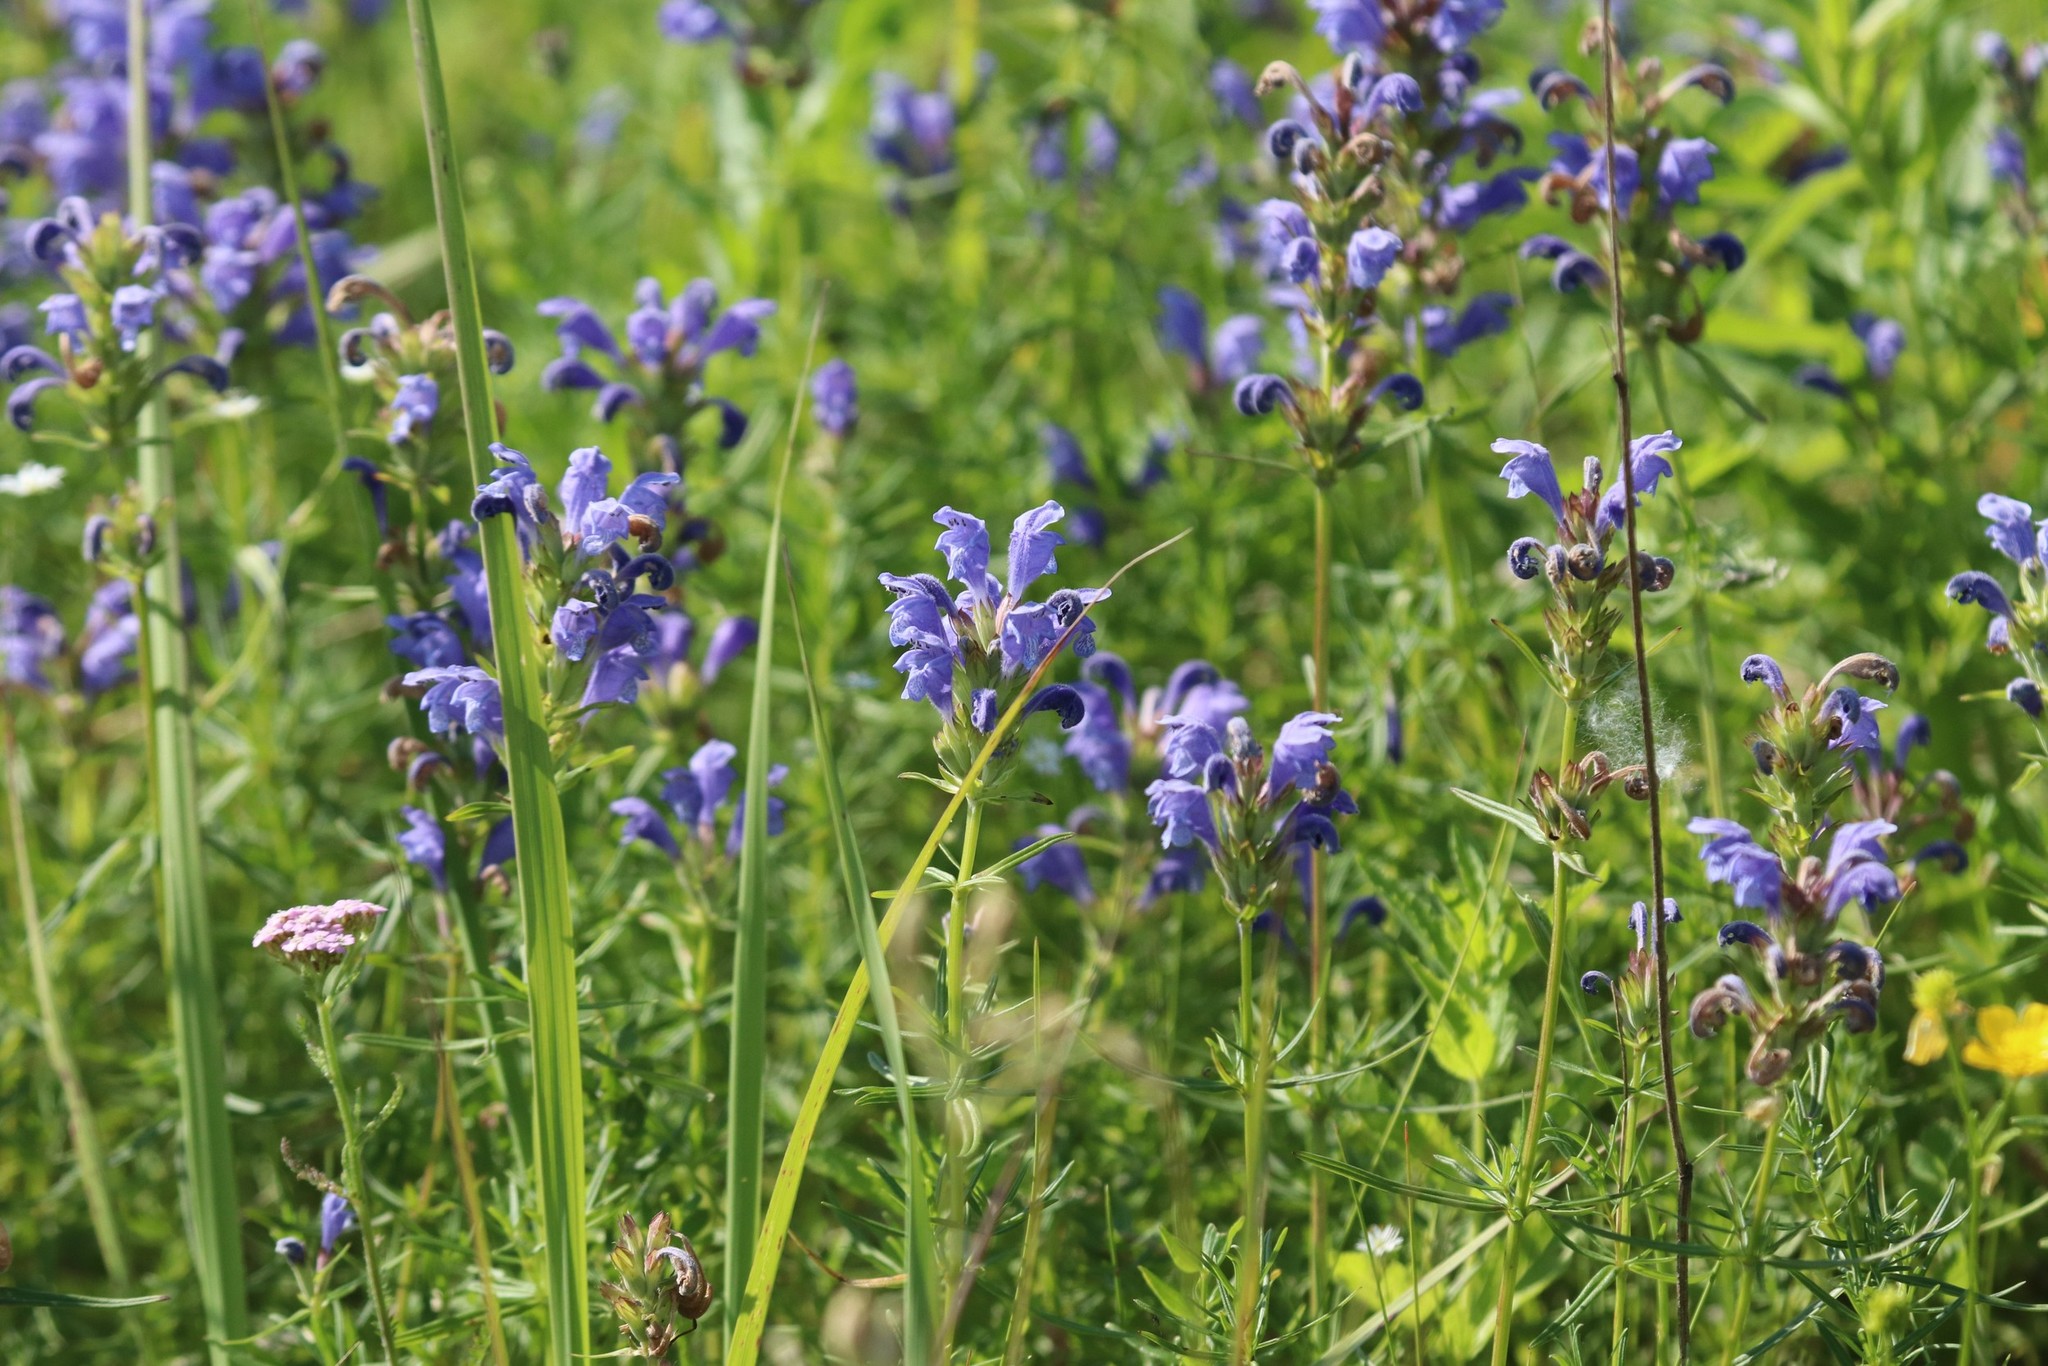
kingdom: Plantae
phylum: Tracheophyta
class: Magnoliopsida
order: Lamiales
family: Lamiaceae
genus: Dracocephalum
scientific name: Dracocephalum ruyschiana
